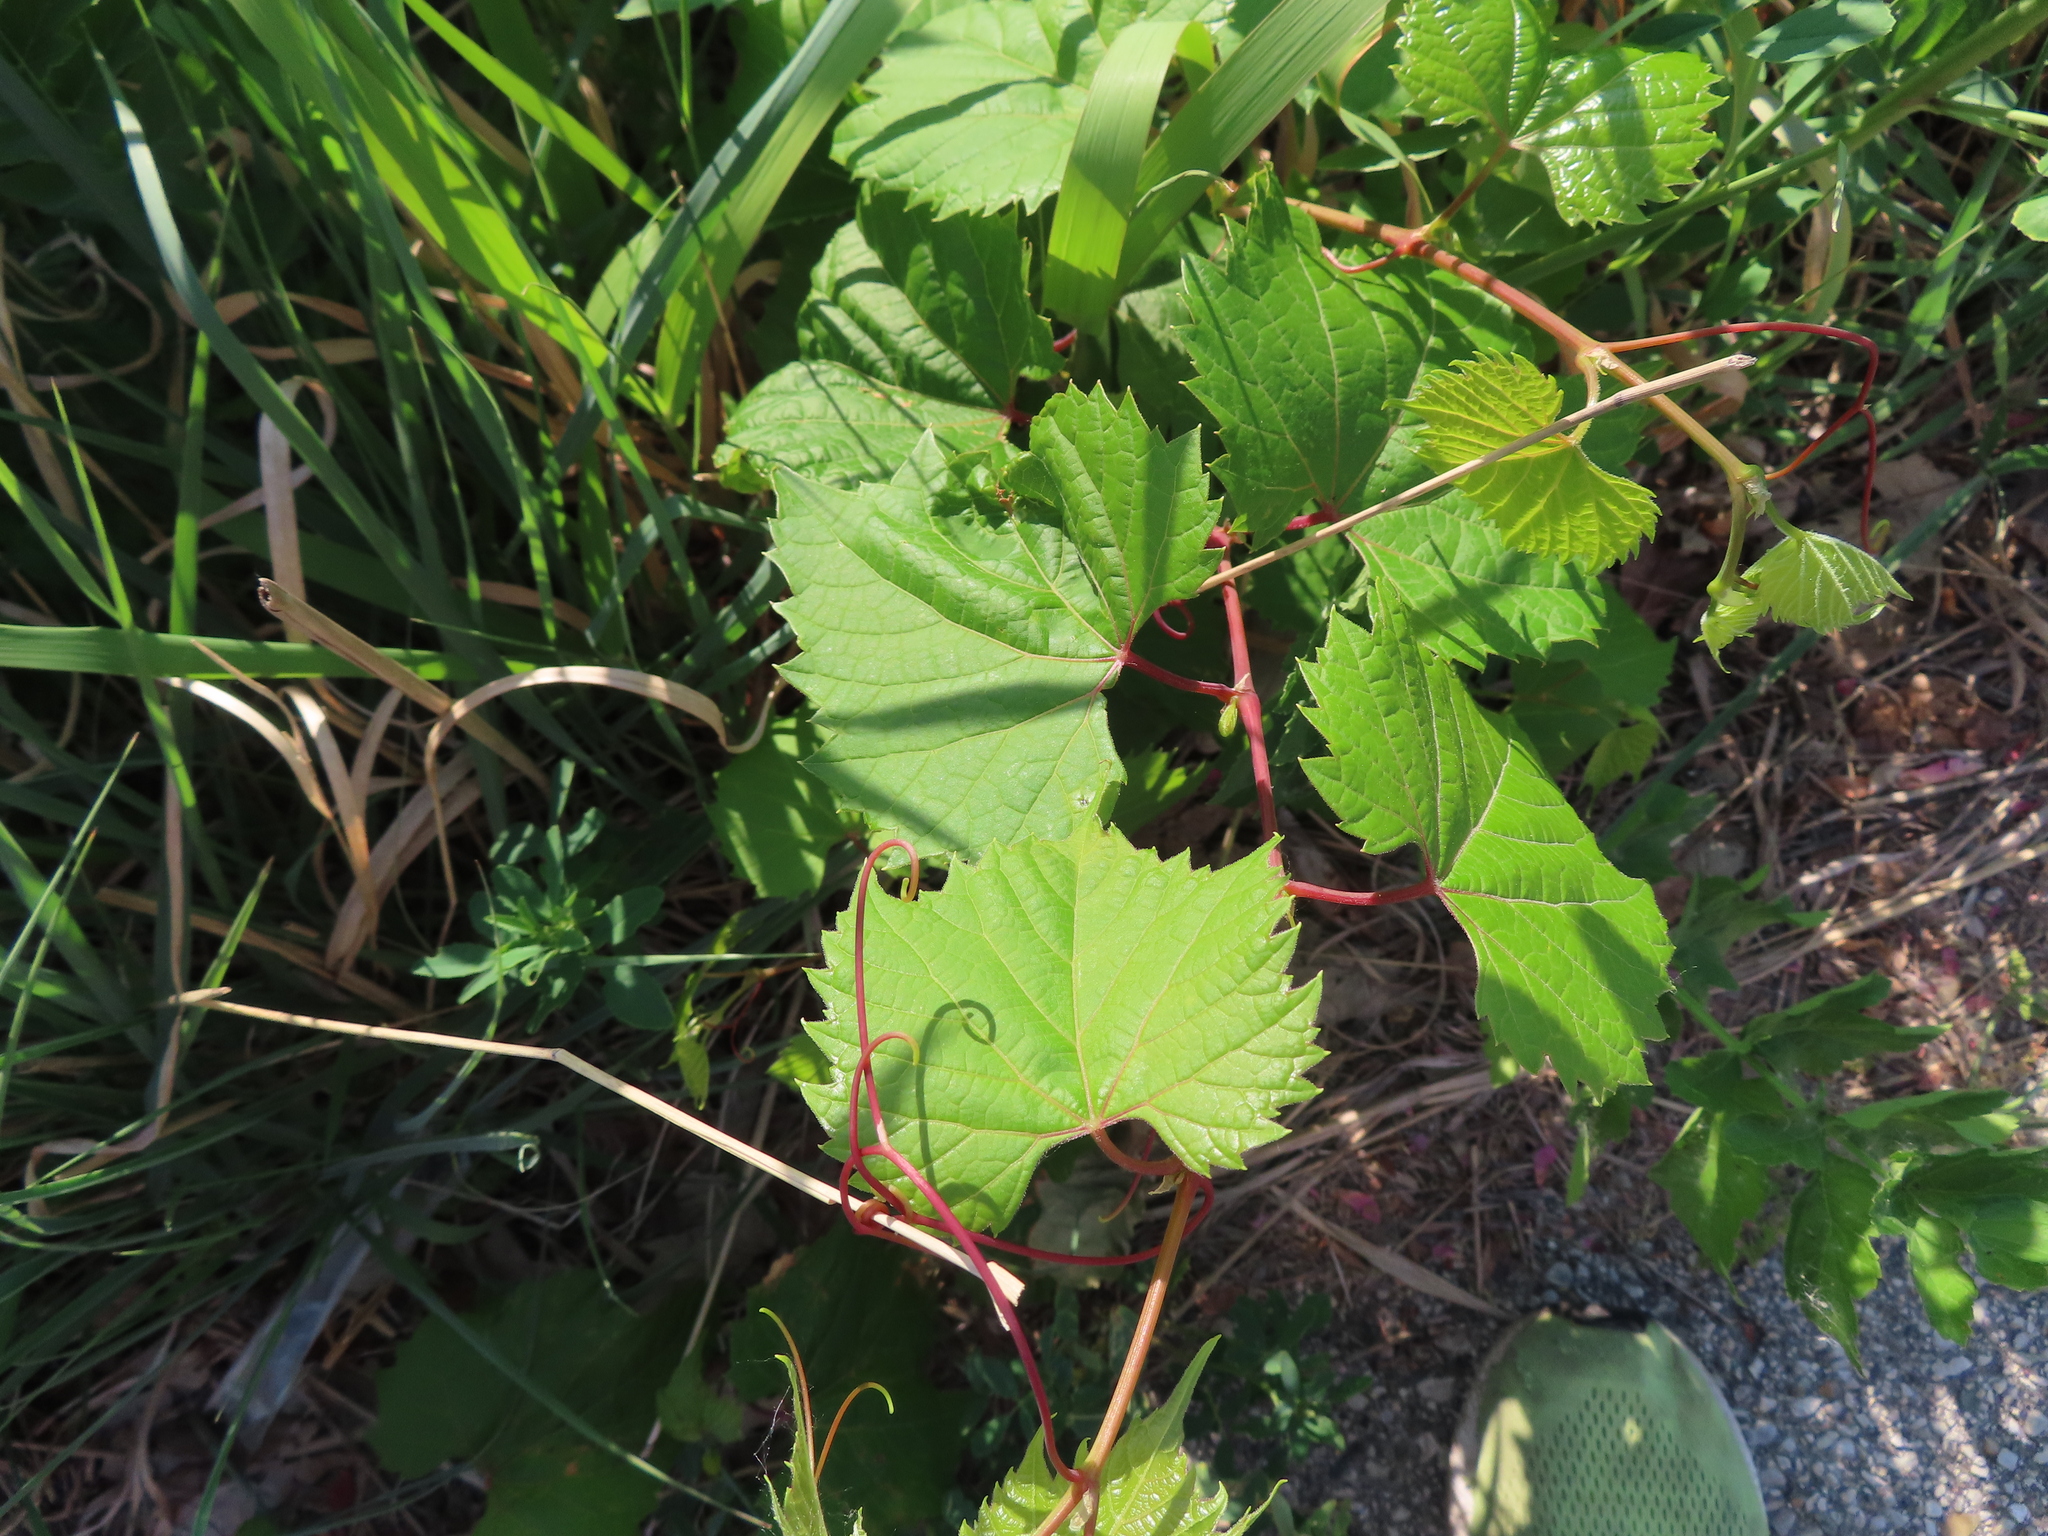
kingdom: Plantae
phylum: Tracheophyta
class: Magnoliopsida
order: Vitales
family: Vitaceae
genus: Vitis
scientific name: Vitis riparia
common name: Frost grape
